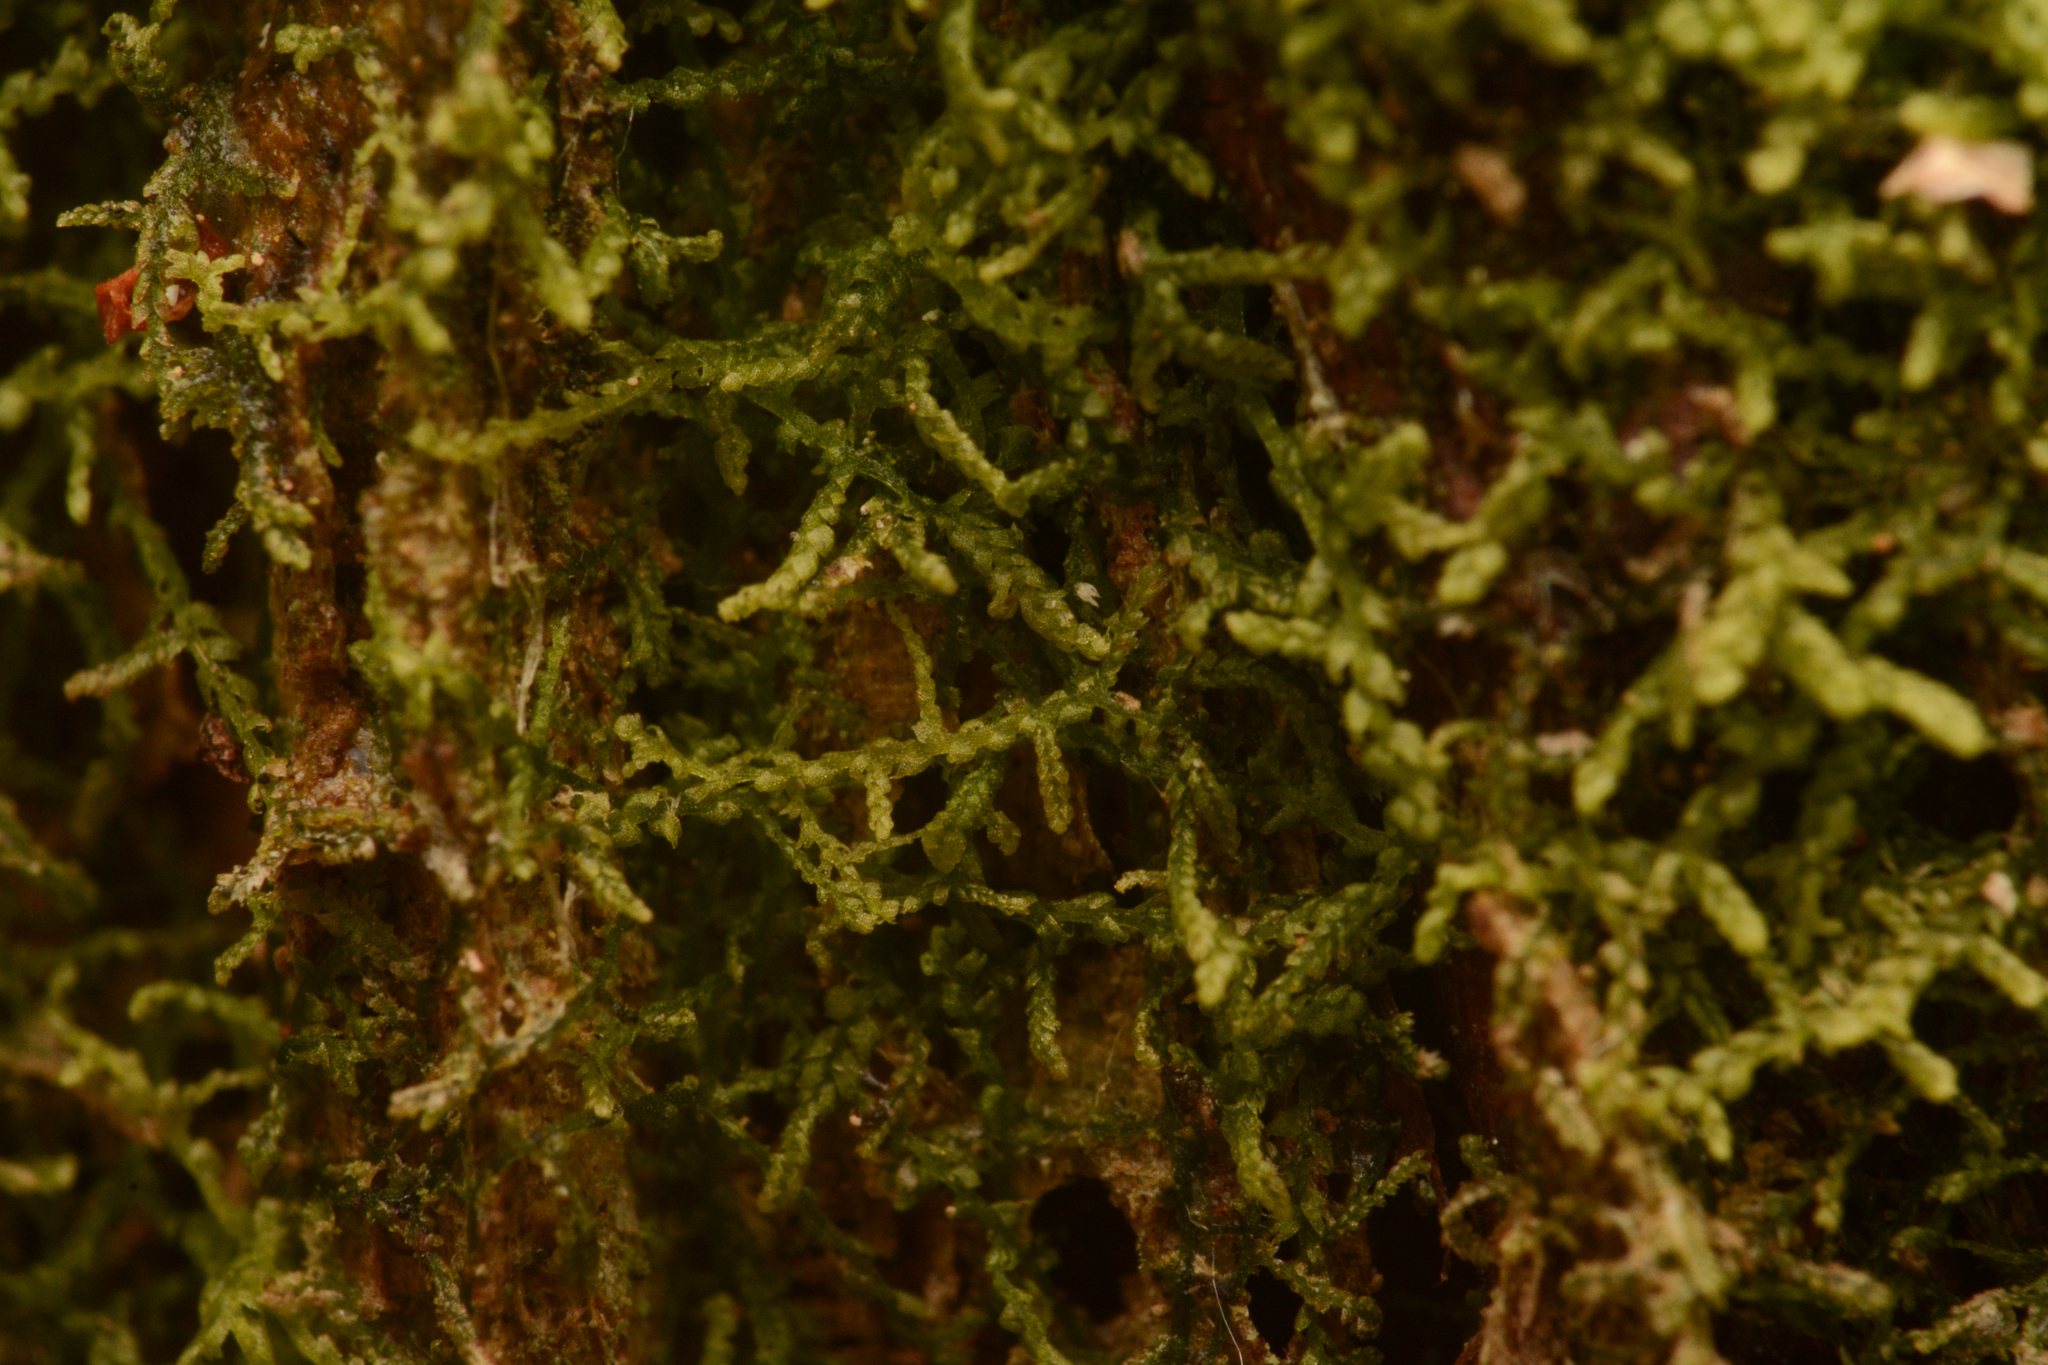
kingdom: Plantae
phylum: Marchantiophyta
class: Jungermanniopsida
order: Jungermanniales
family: Lepidoziaceae
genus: Lepidozia
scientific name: Lepidozia reptans
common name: Creeping fingerwort
